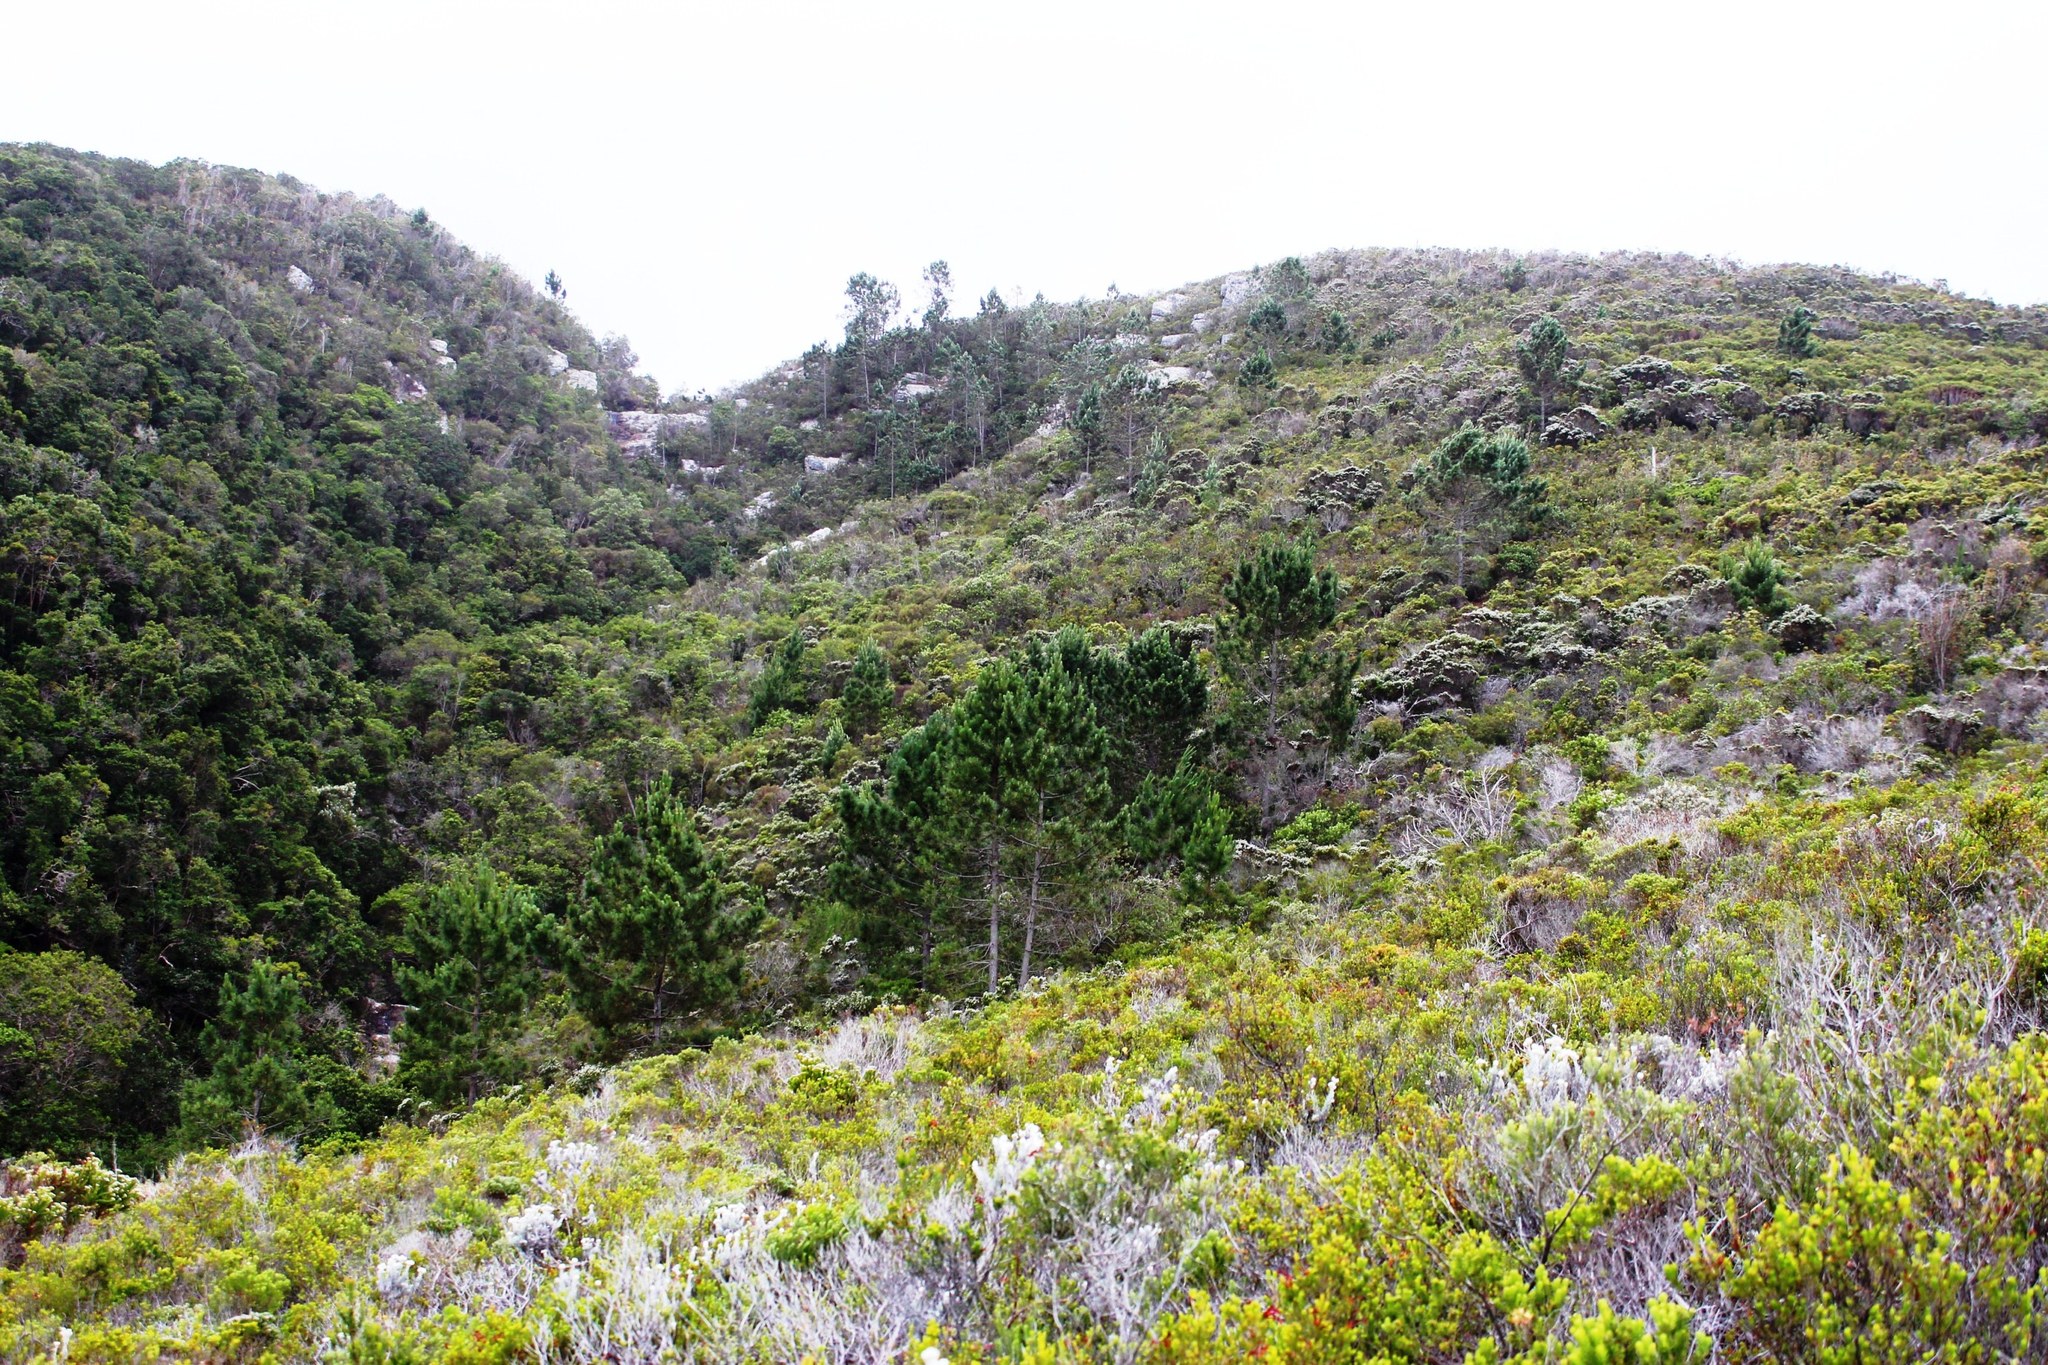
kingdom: Plantae
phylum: Tracheophyta
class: Pinopsida
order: Pinales
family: Pinaceae
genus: Pinus
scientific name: Pinus radiata
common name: Monterey pine
